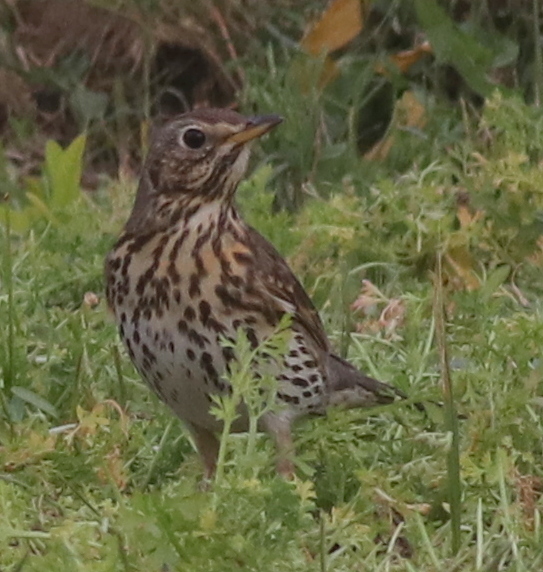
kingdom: Animalia
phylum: Chordata
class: Aves
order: Passeriformes
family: Turdidae
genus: Turdus
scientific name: Turdus philomelos
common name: Song thrush
